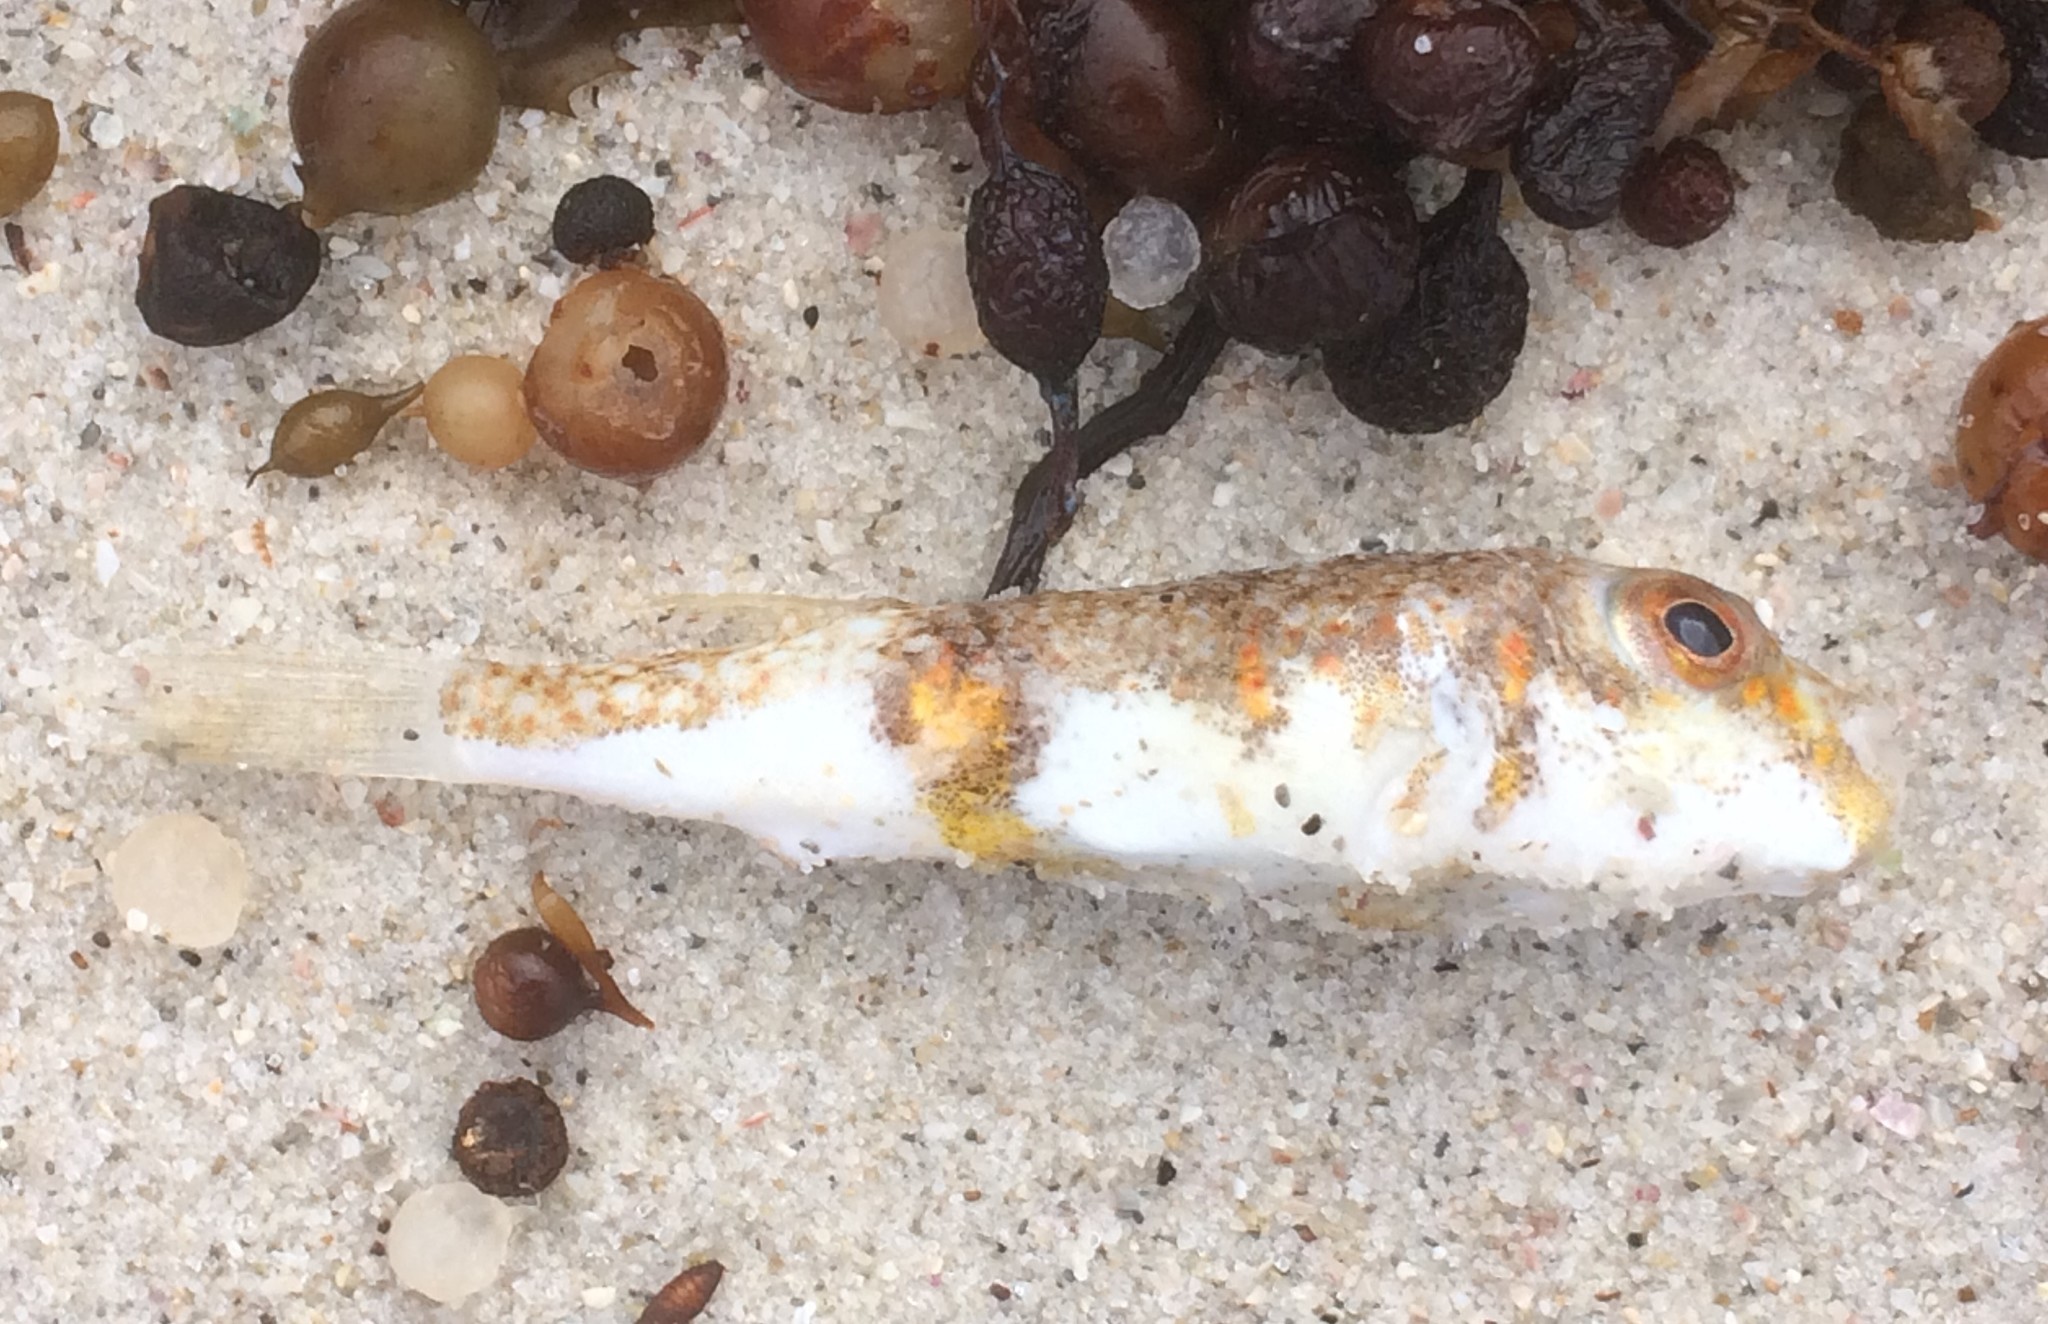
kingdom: Animalia
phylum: Chordata
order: Tetraodontiformes
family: Tetraodontidae
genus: Polyspina
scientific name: Polyspina piosae
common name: Orange-barred pufferfish
